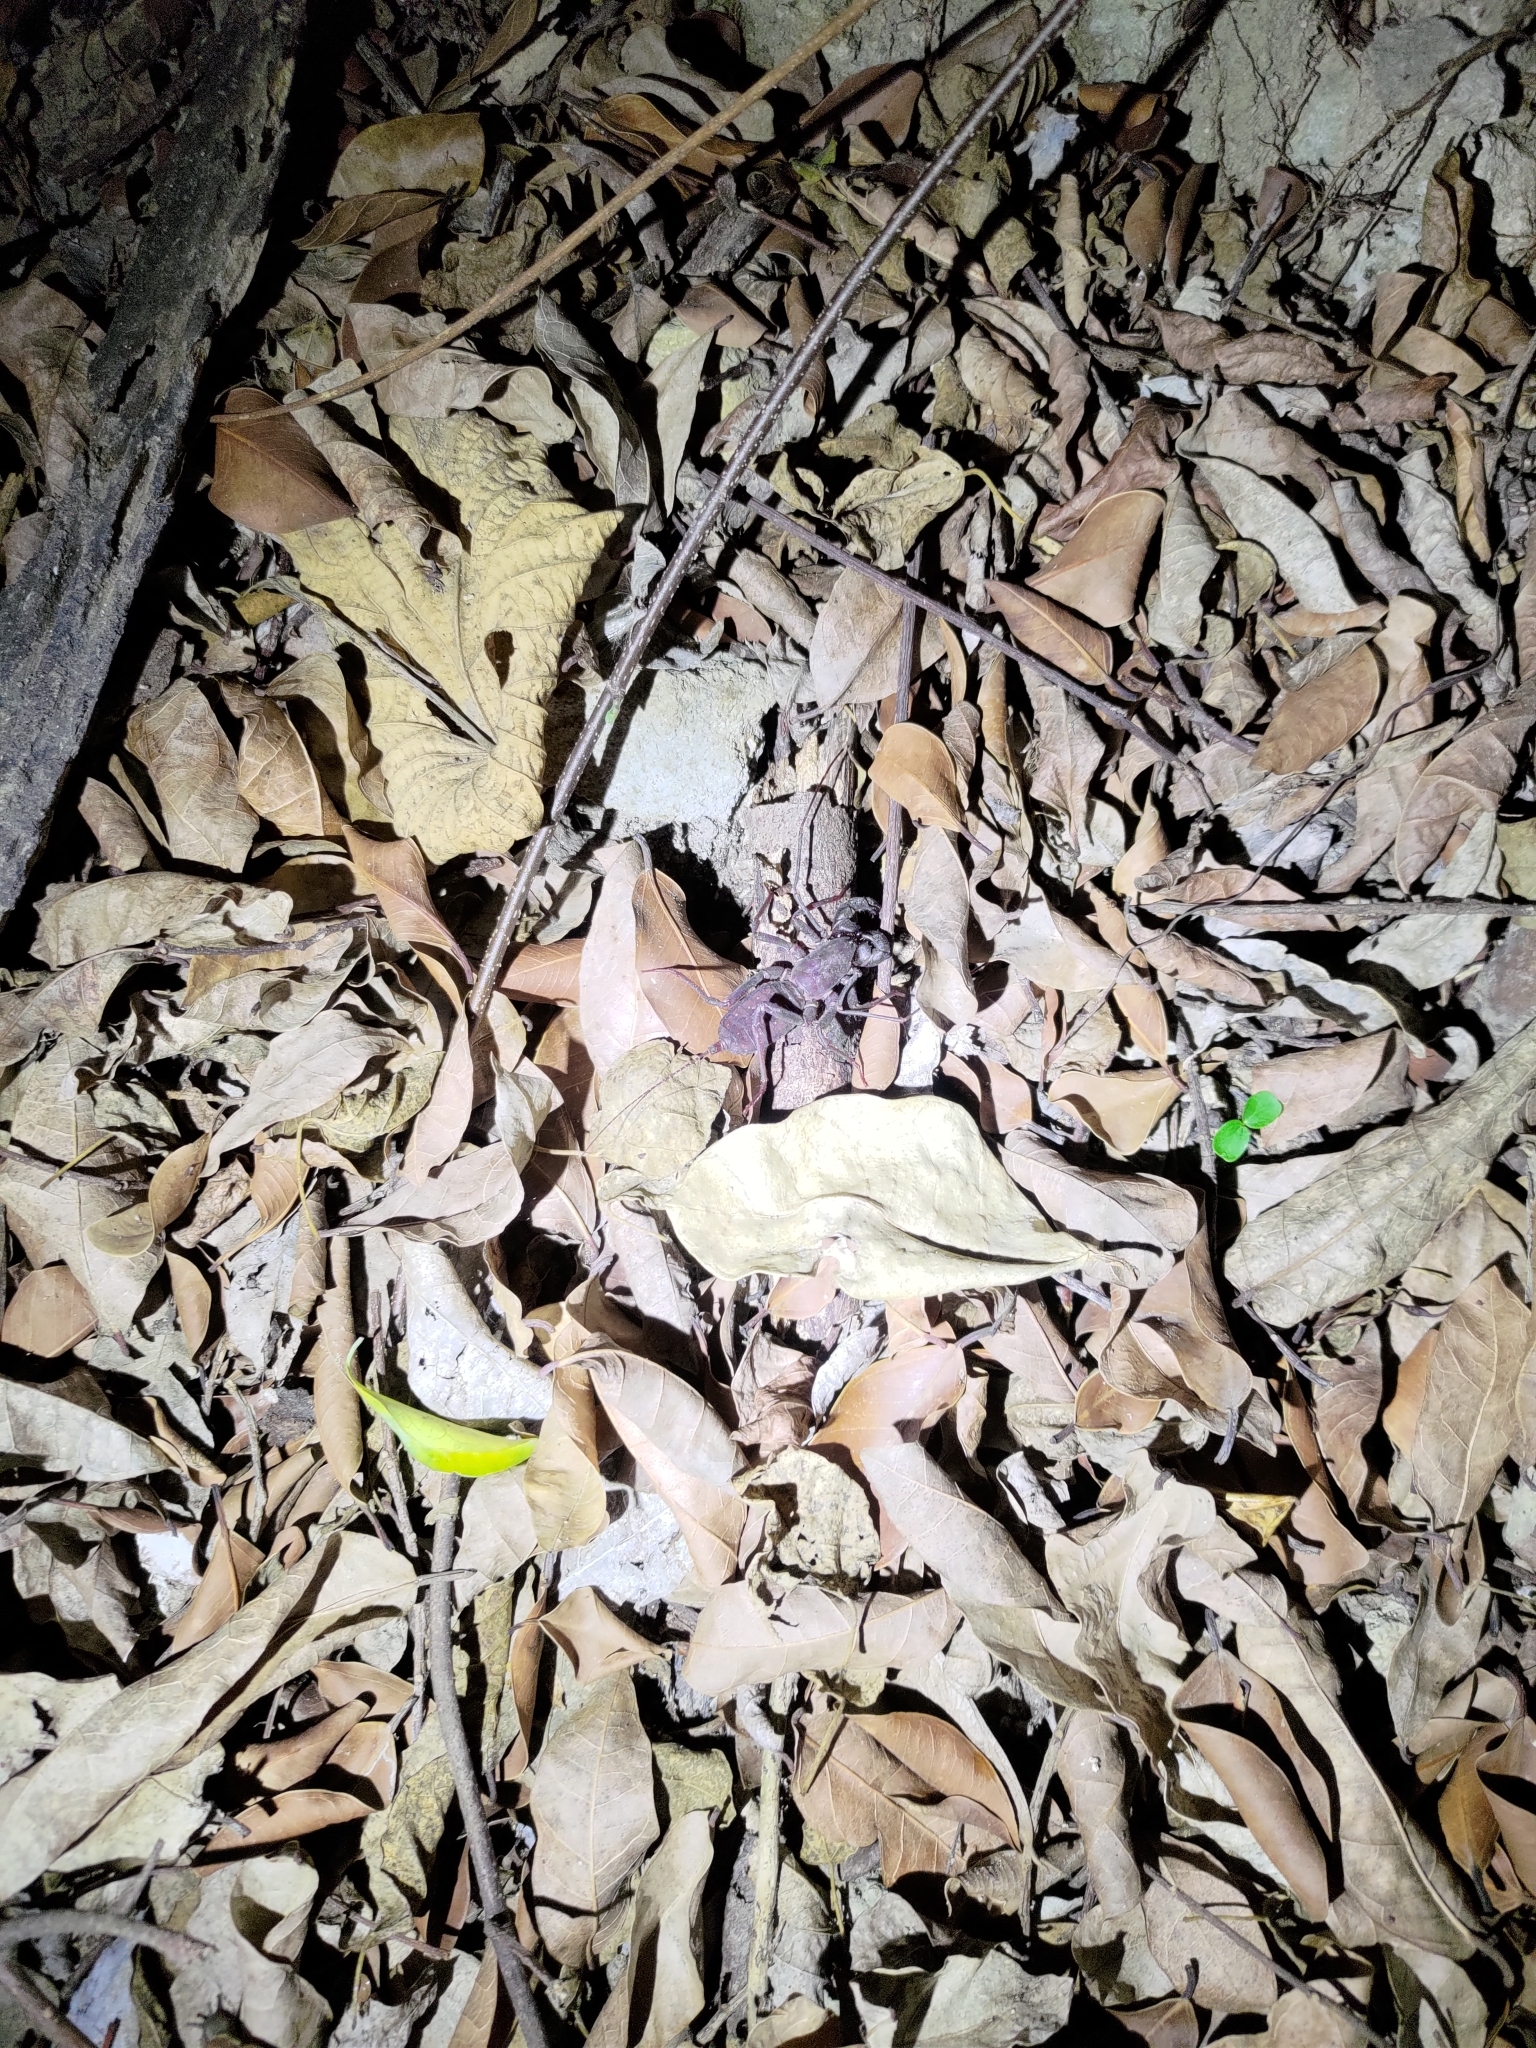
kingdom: Animalia
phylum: Arthropoda
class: Arachnida
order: Uropygi
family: Thelyphonidae
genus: Typopeltis
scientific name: Typopeltis crucifer
